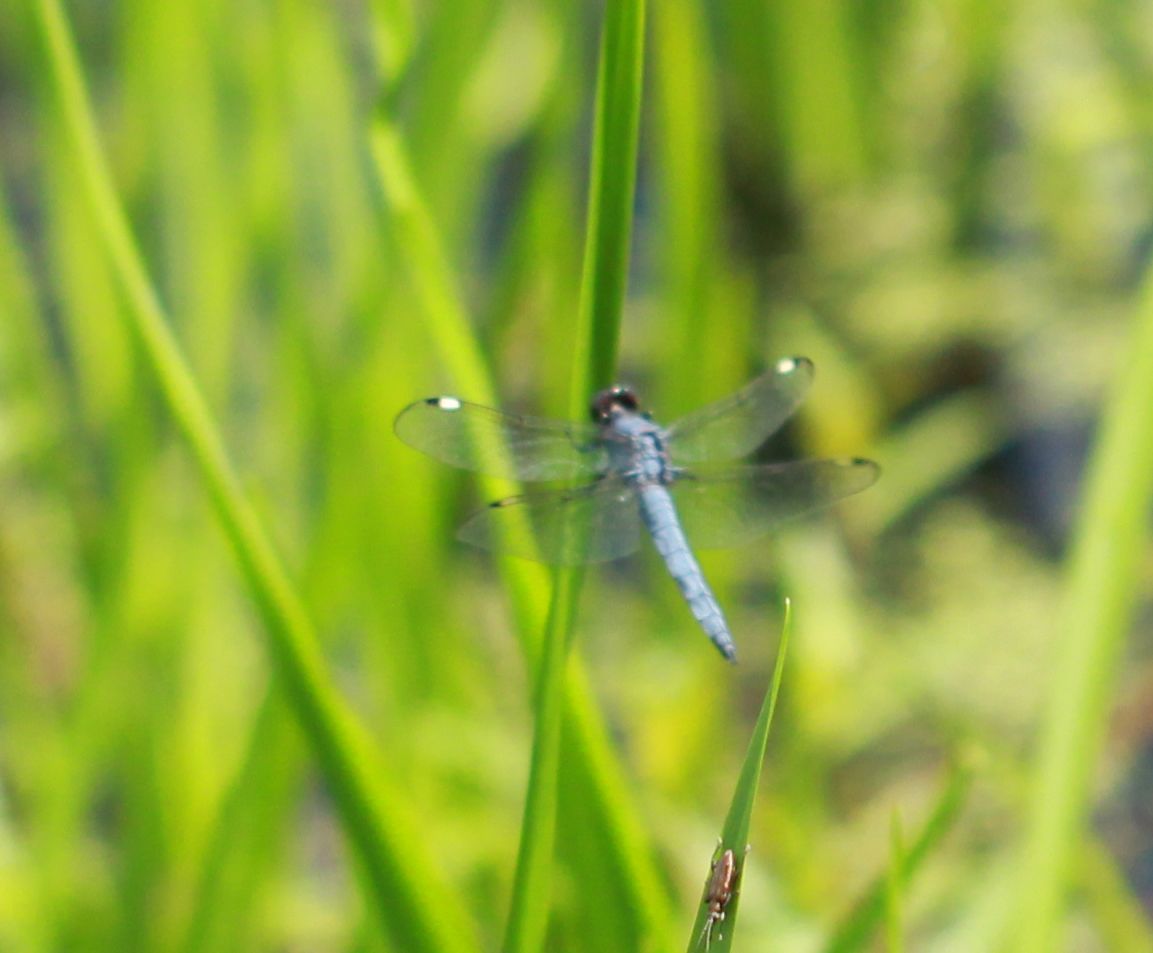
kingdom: Animalia
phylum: Arthropoda
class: Insecta
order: Odonata
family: Libellulidae
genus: Libellula
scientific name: Libellula cyanea
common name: Spangled skimmer
